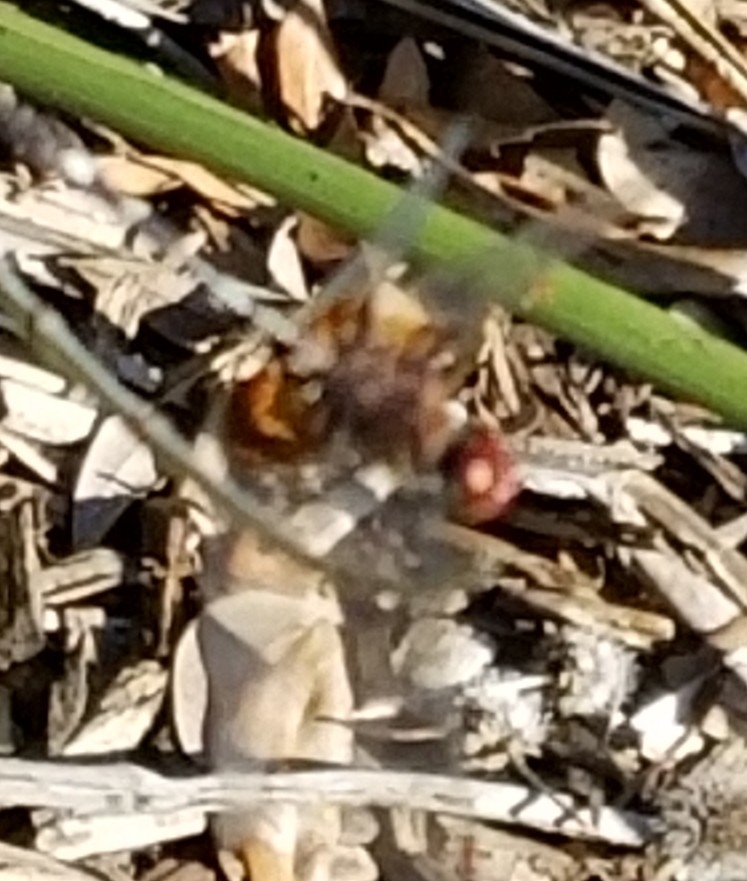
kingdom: Animalia
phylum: Arthropoda
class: Insecta
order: Odonata
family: Libellulidae
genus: Dythemis
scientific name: Dythemis fugax
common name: Checkered setwing
